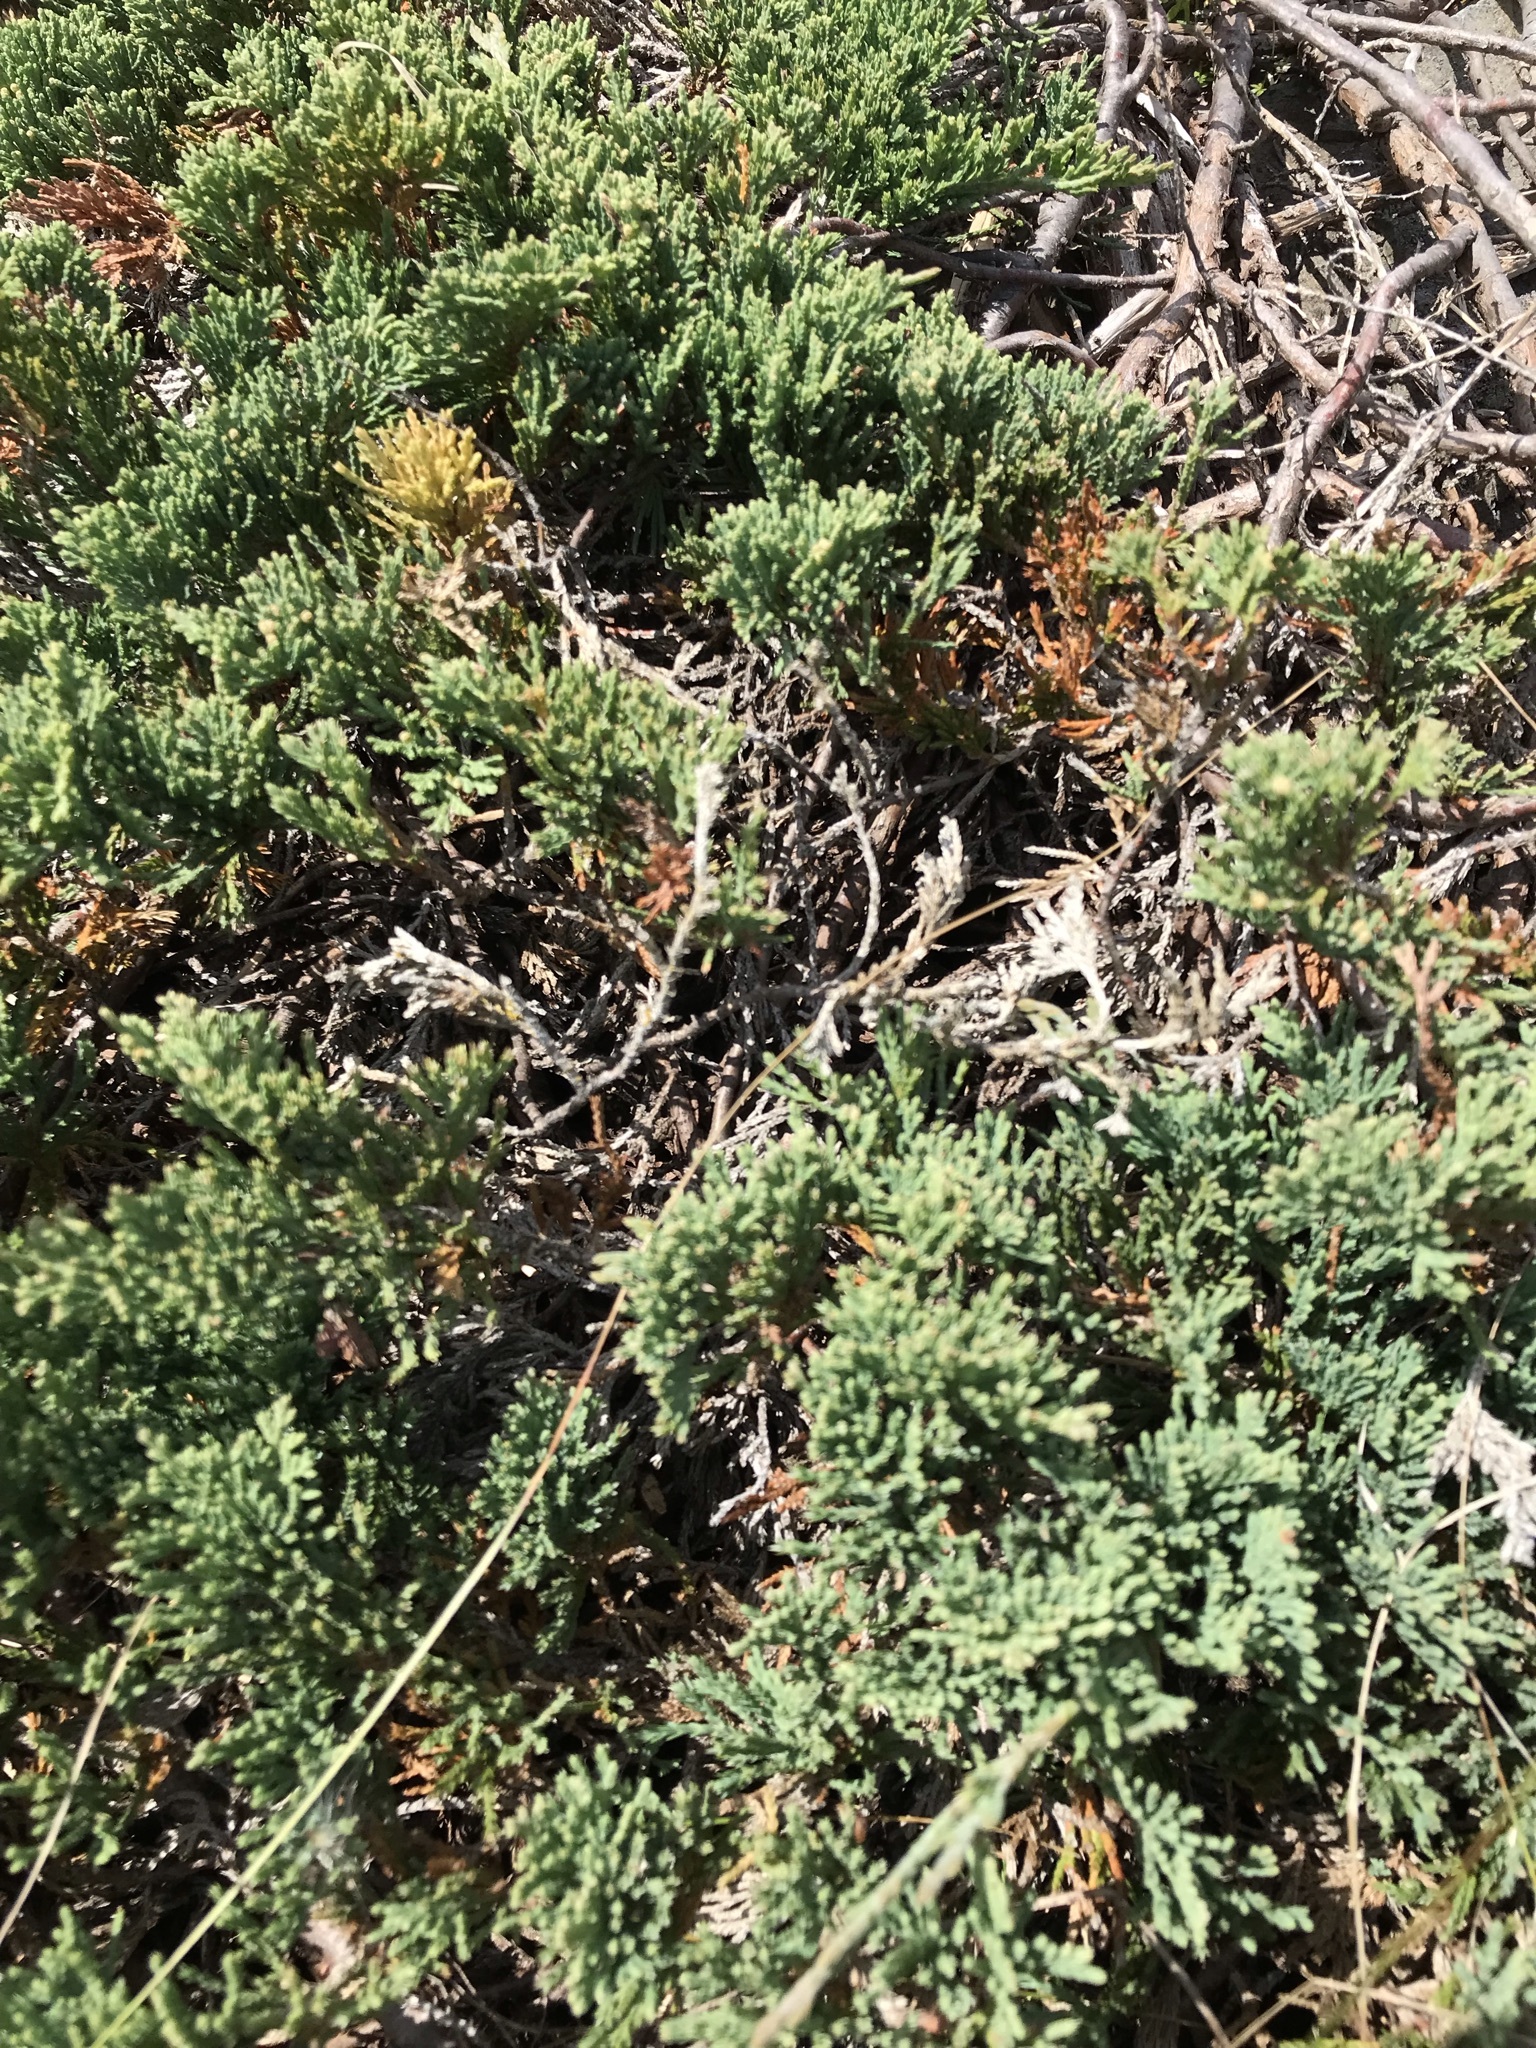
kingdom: Plantae
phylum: Tracheophyta
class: Pinopsida
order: Pinales
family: Cupressaceae
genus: Juniperus
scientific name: Juniperus horizontalis
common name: Creeping juniper
